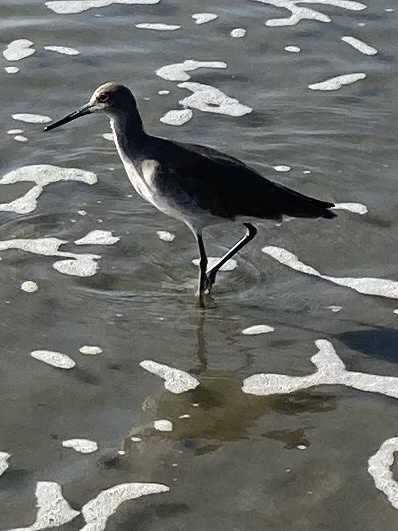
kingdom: Animalia
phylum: Chordata
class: Aves
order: Charadriiformes
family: Scolopacidae
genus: Tringa
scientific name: Tringa semipalmata
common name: Willet
